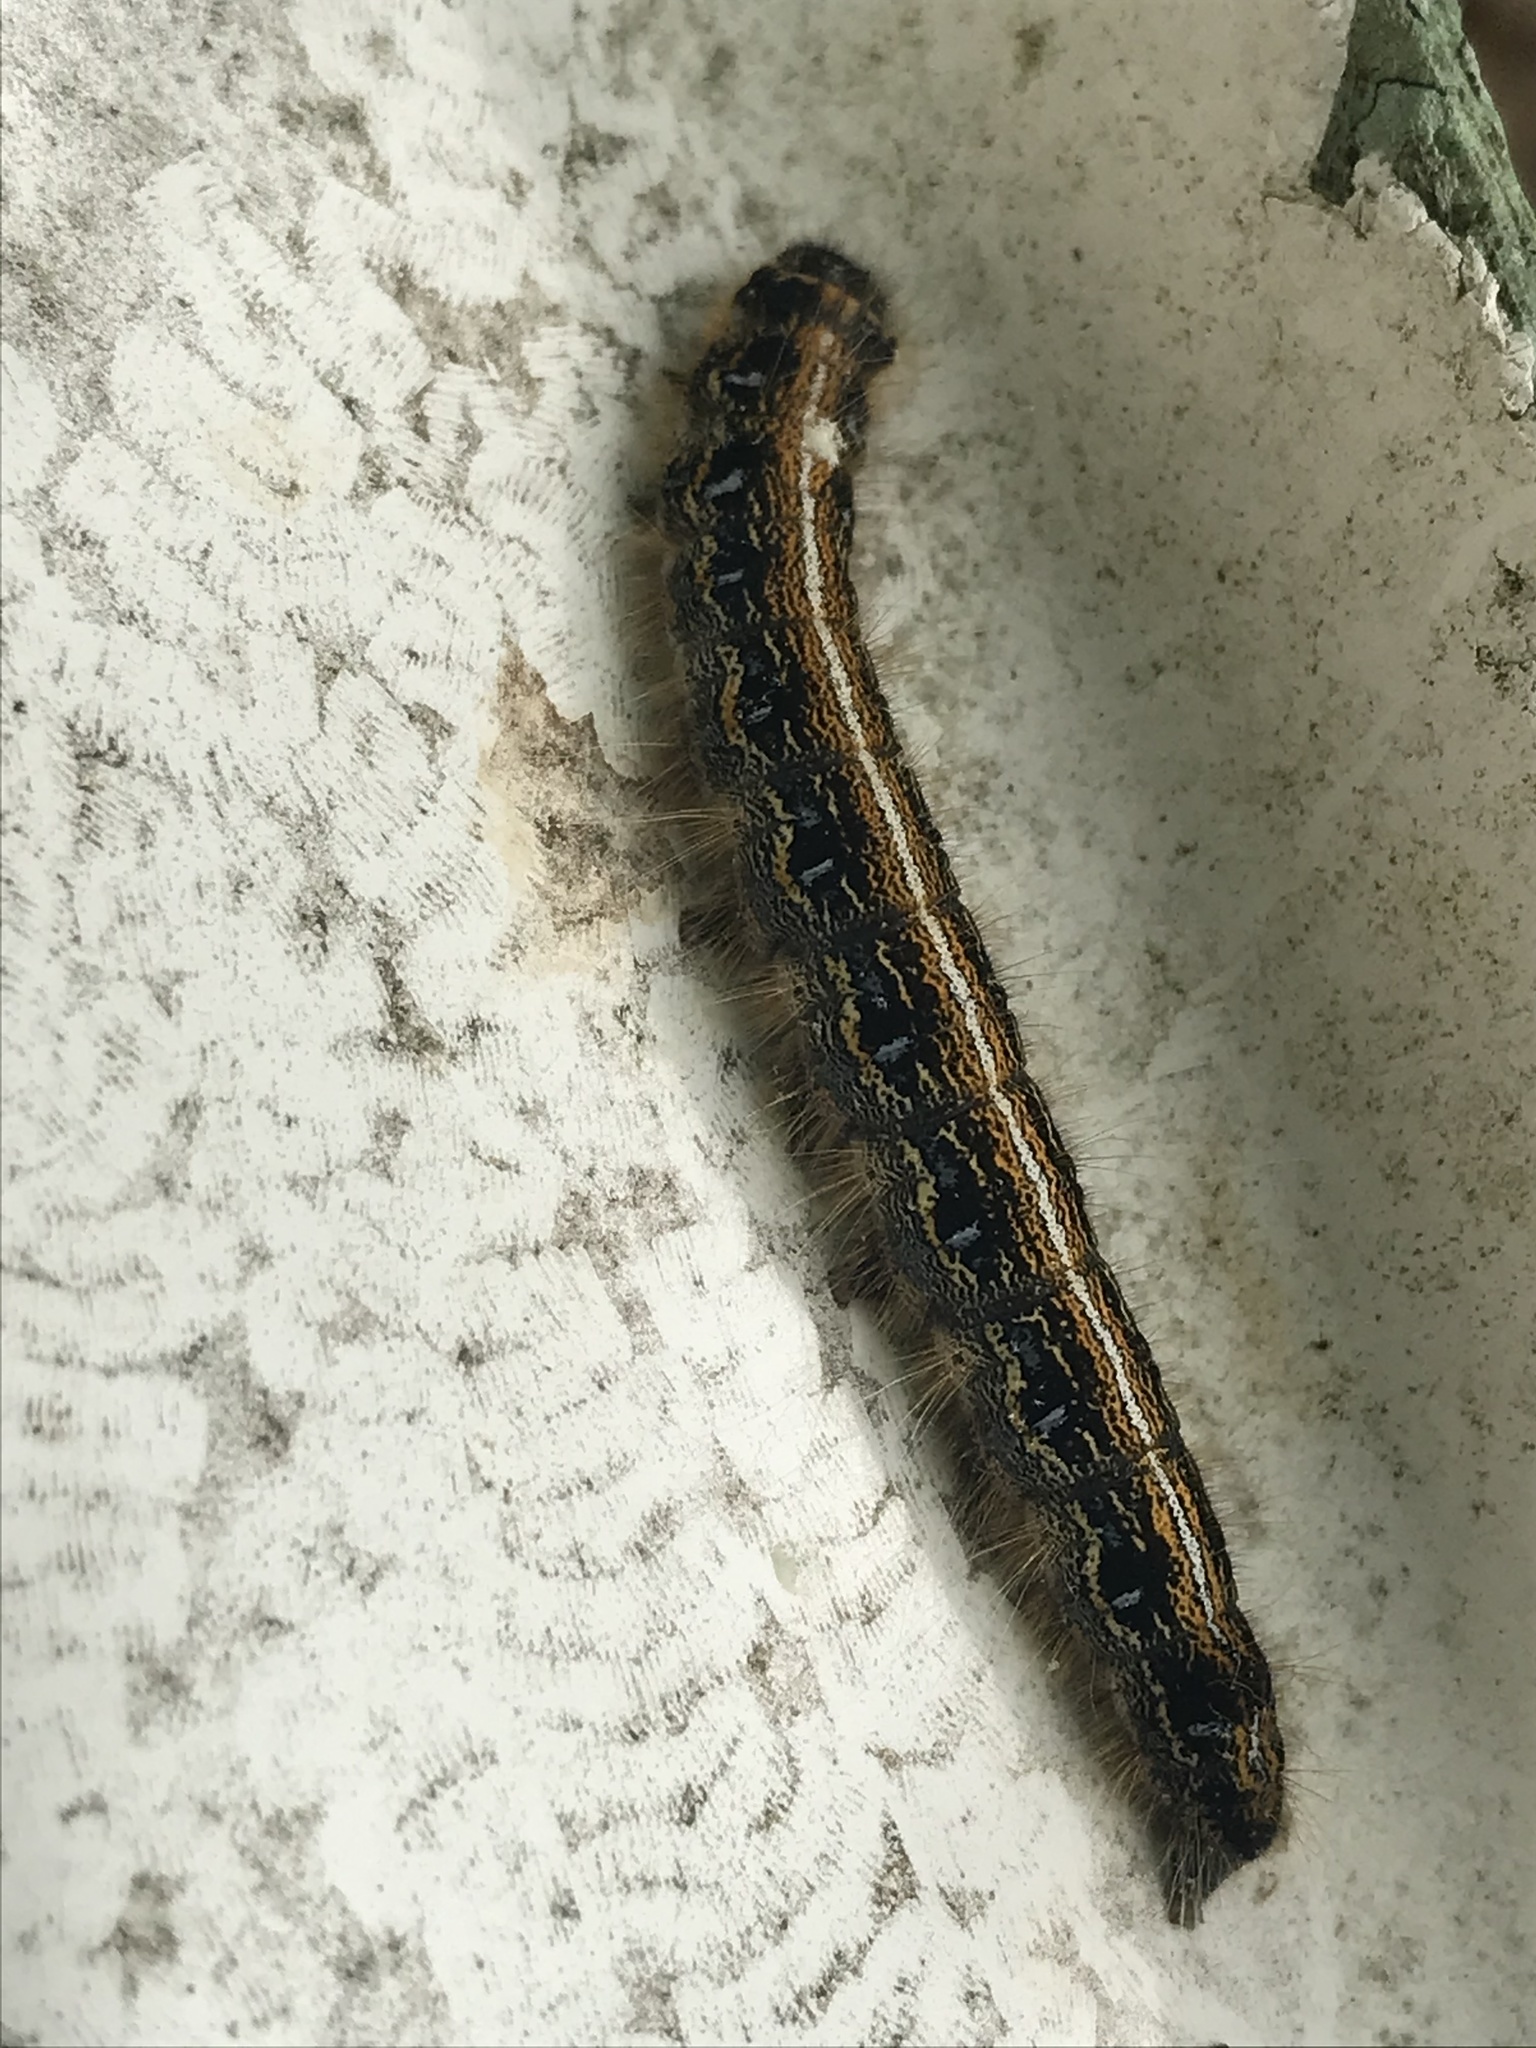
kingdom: Animalia
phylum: Arthropoda
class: Insecta
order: Lepidoptera
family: Lasiocampidae
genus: Malacosoma
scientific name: Malacosoma americana
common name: Eastern tent caterpillar moth
